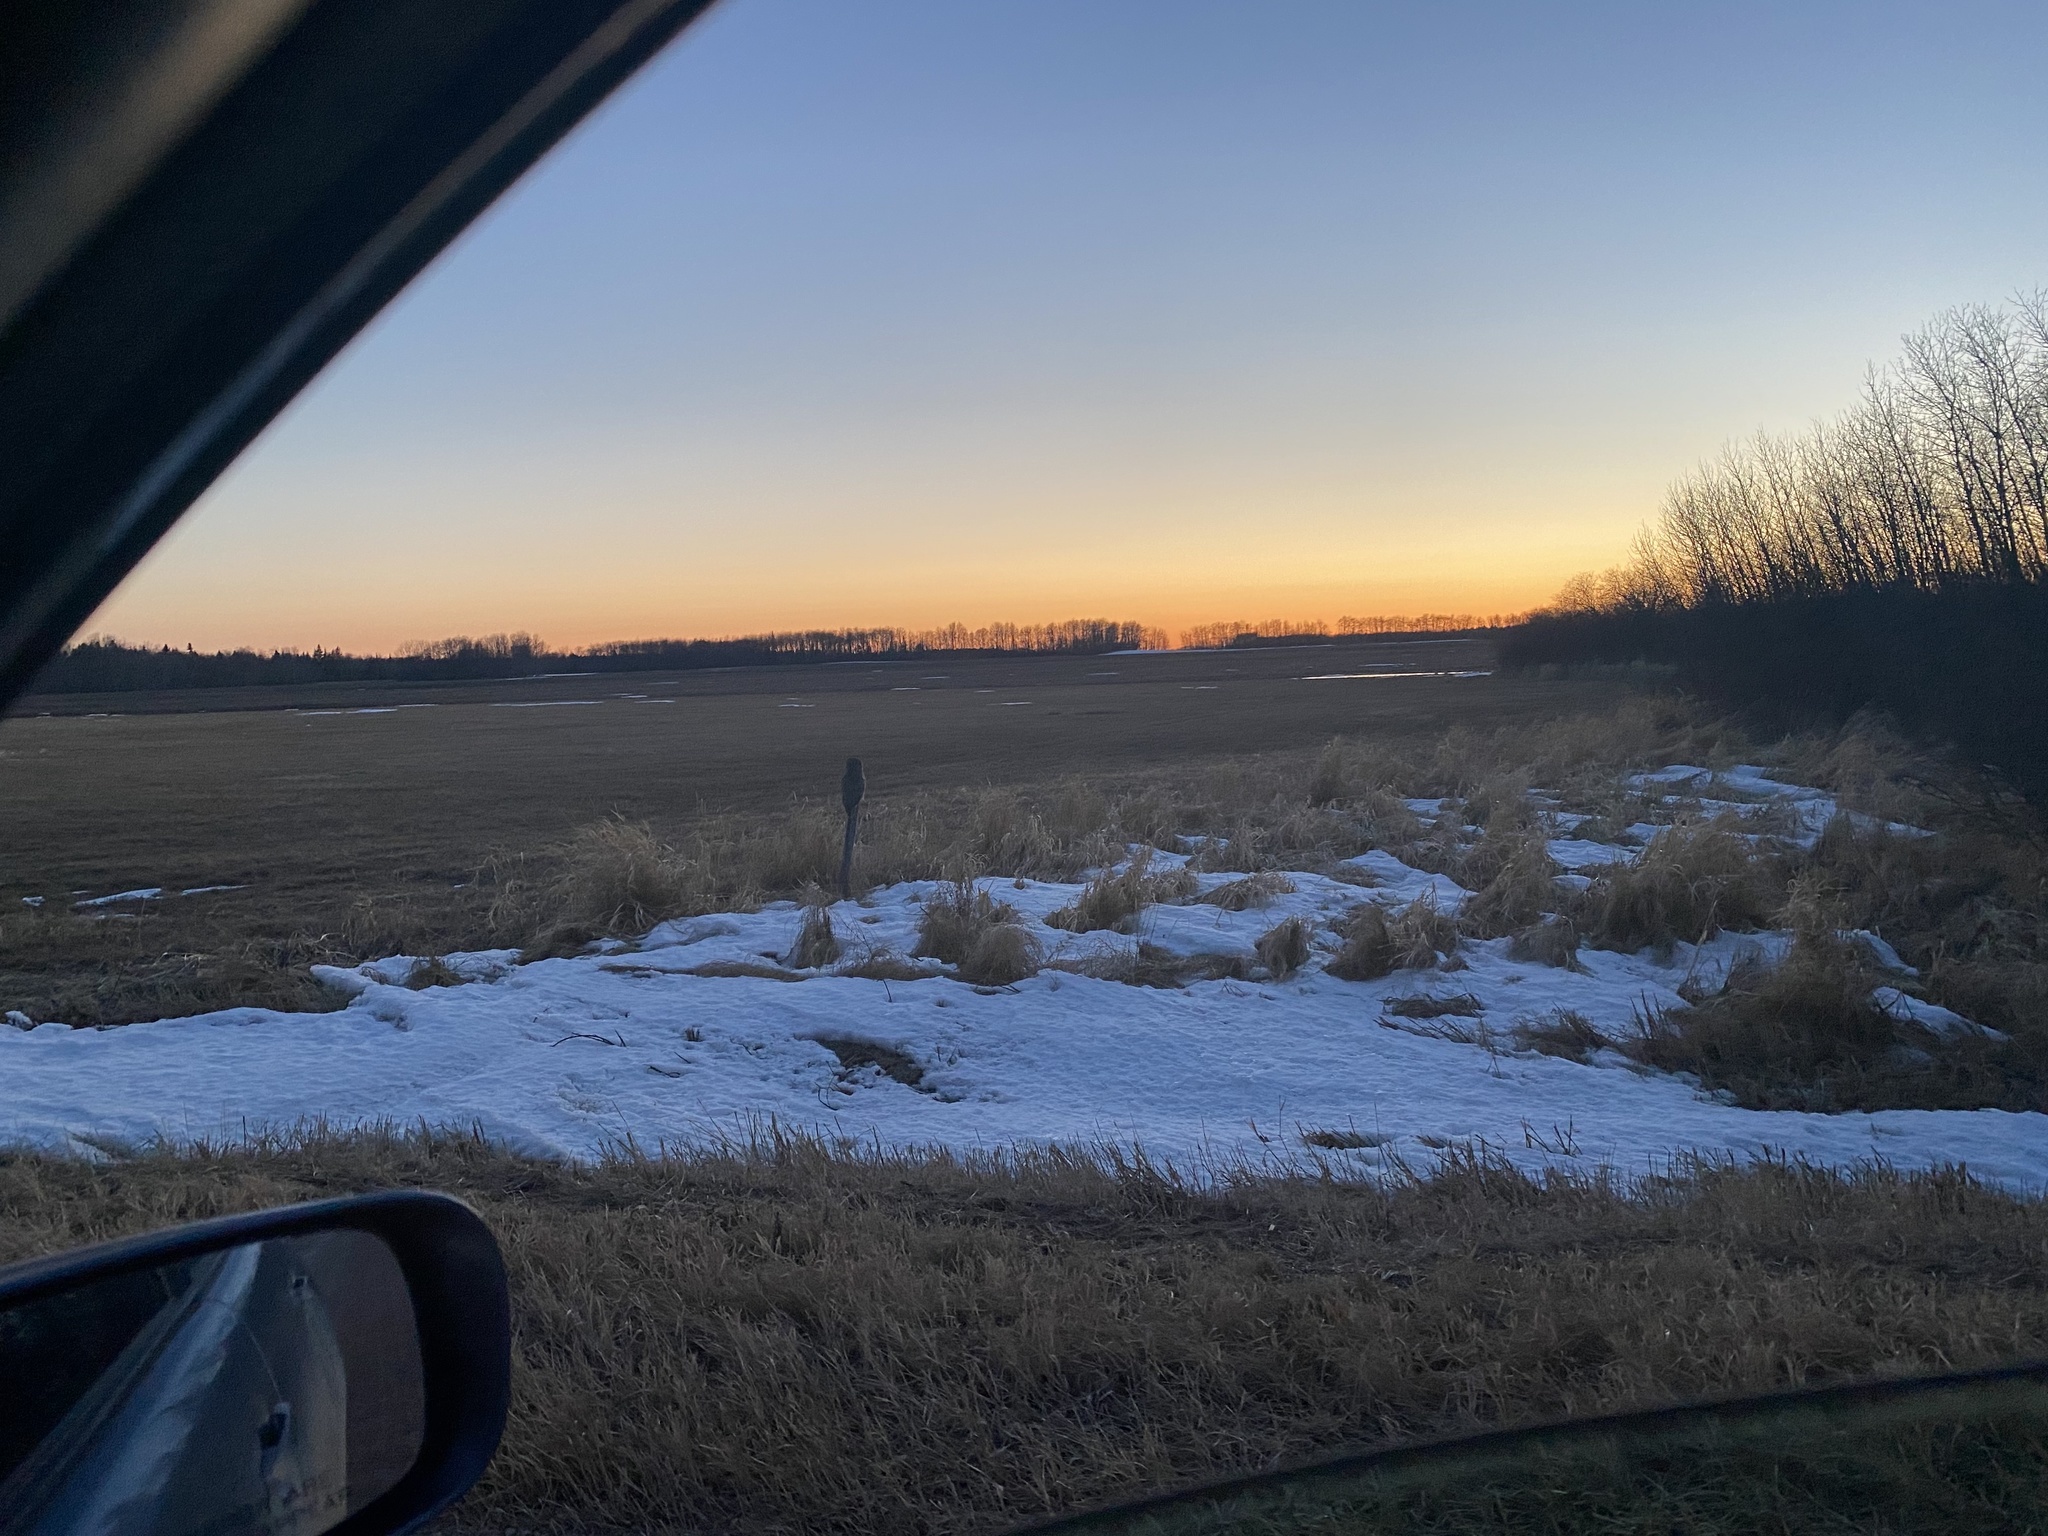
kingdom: Animalia
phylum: Chordata
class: Aves
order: Strigiformes
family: Strigidae
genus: Strix
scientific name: Strix nebulosa
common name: Great grey owl
